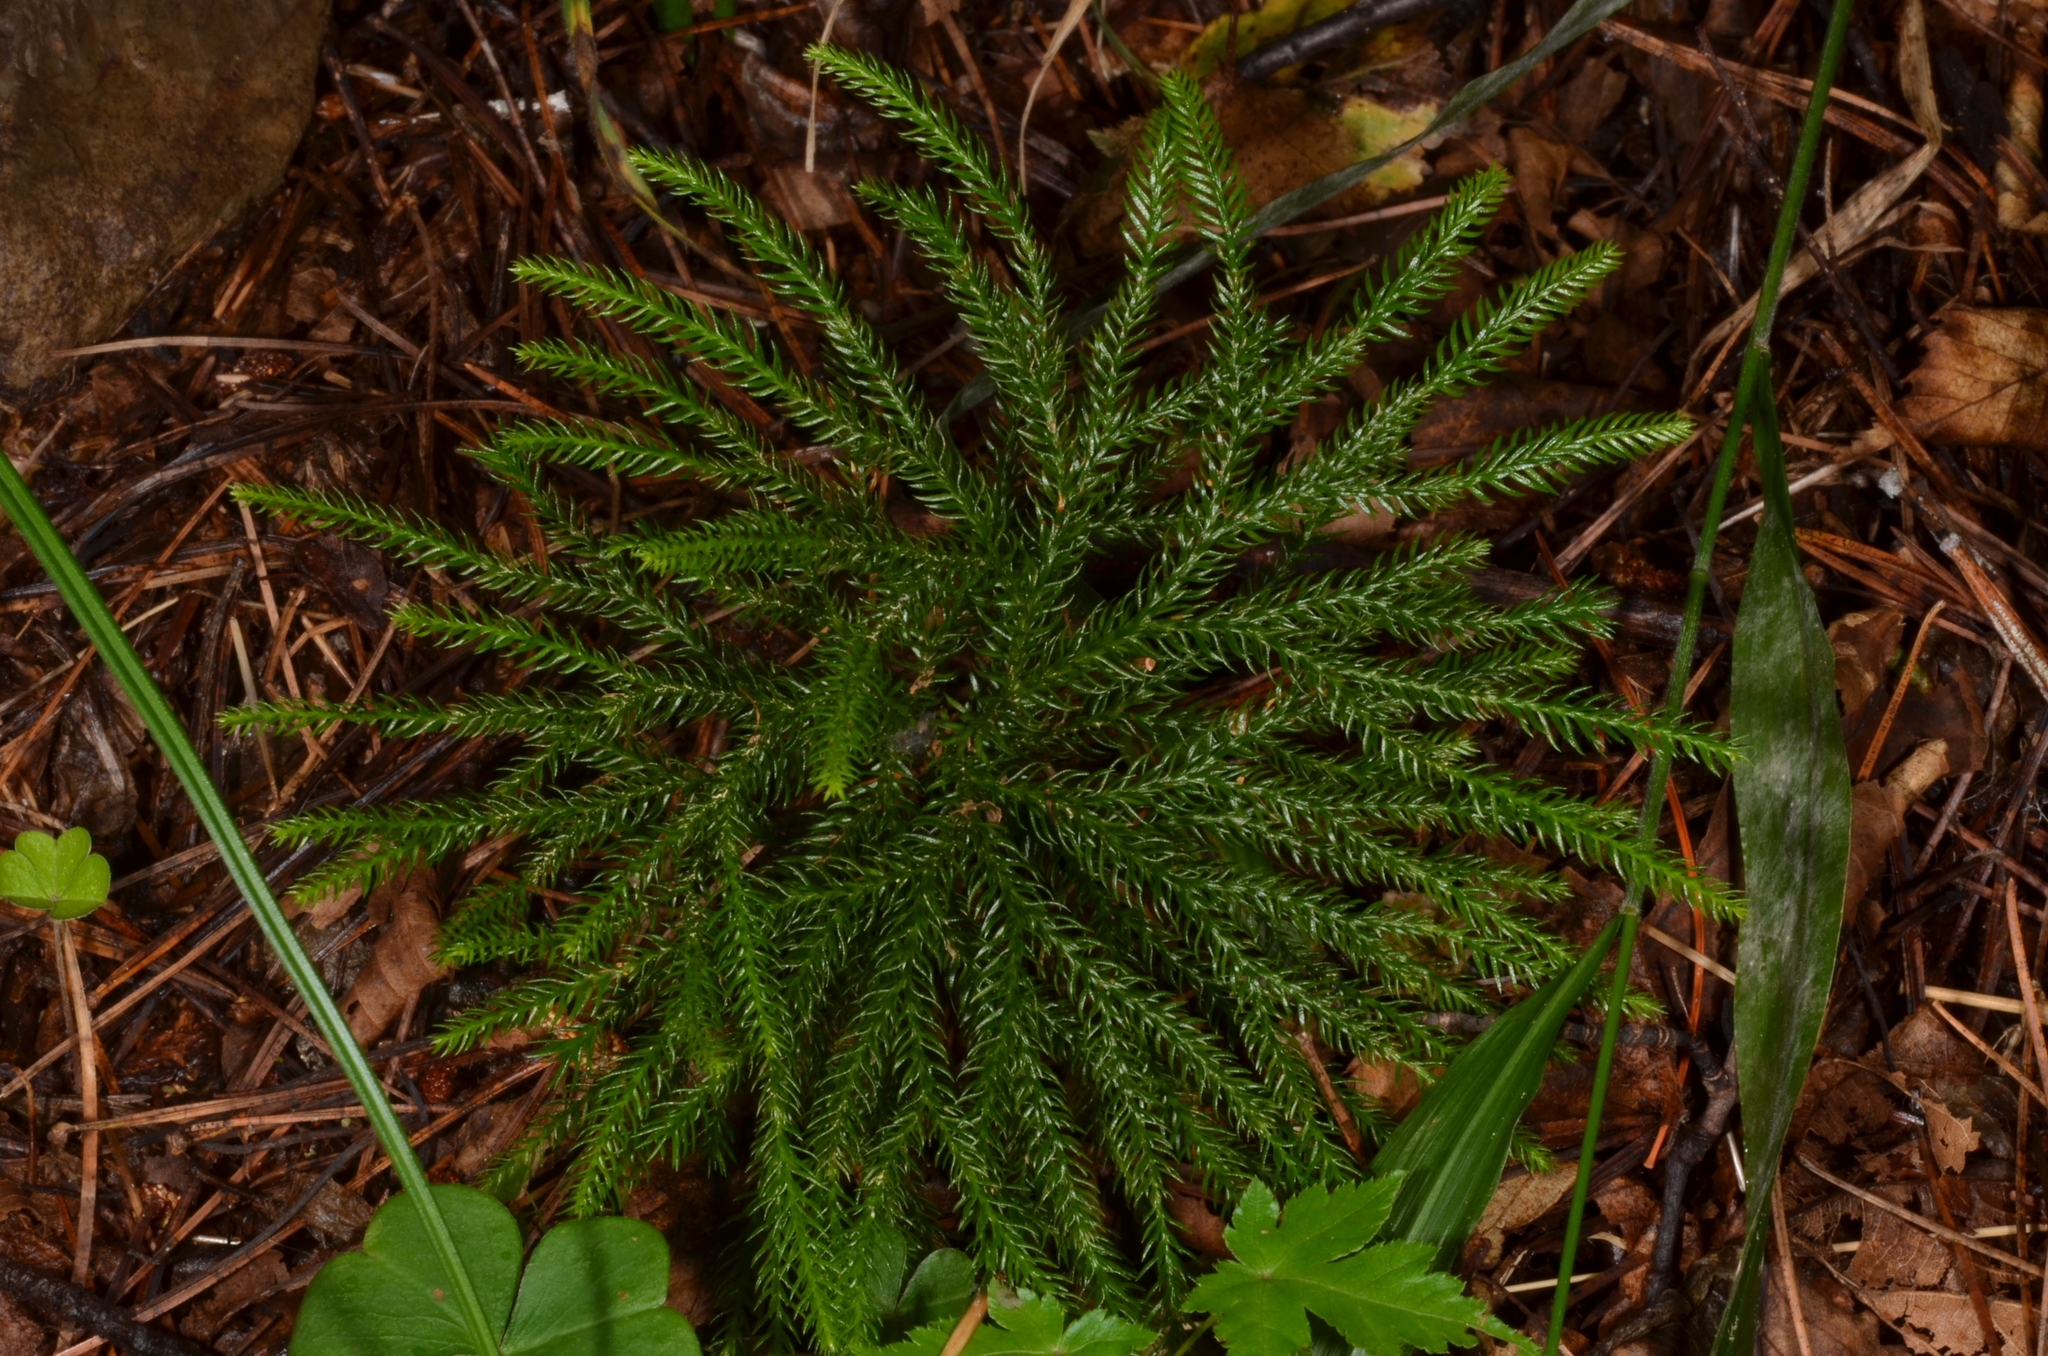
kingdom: Plantae
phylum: Tracheophyta
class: Lycopodiopsida
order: Lycopodiales
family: Lycopodiaceae
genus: Dendrolycopodium
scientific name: Dendrolycopodium obscurum
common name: Common ground-pine
